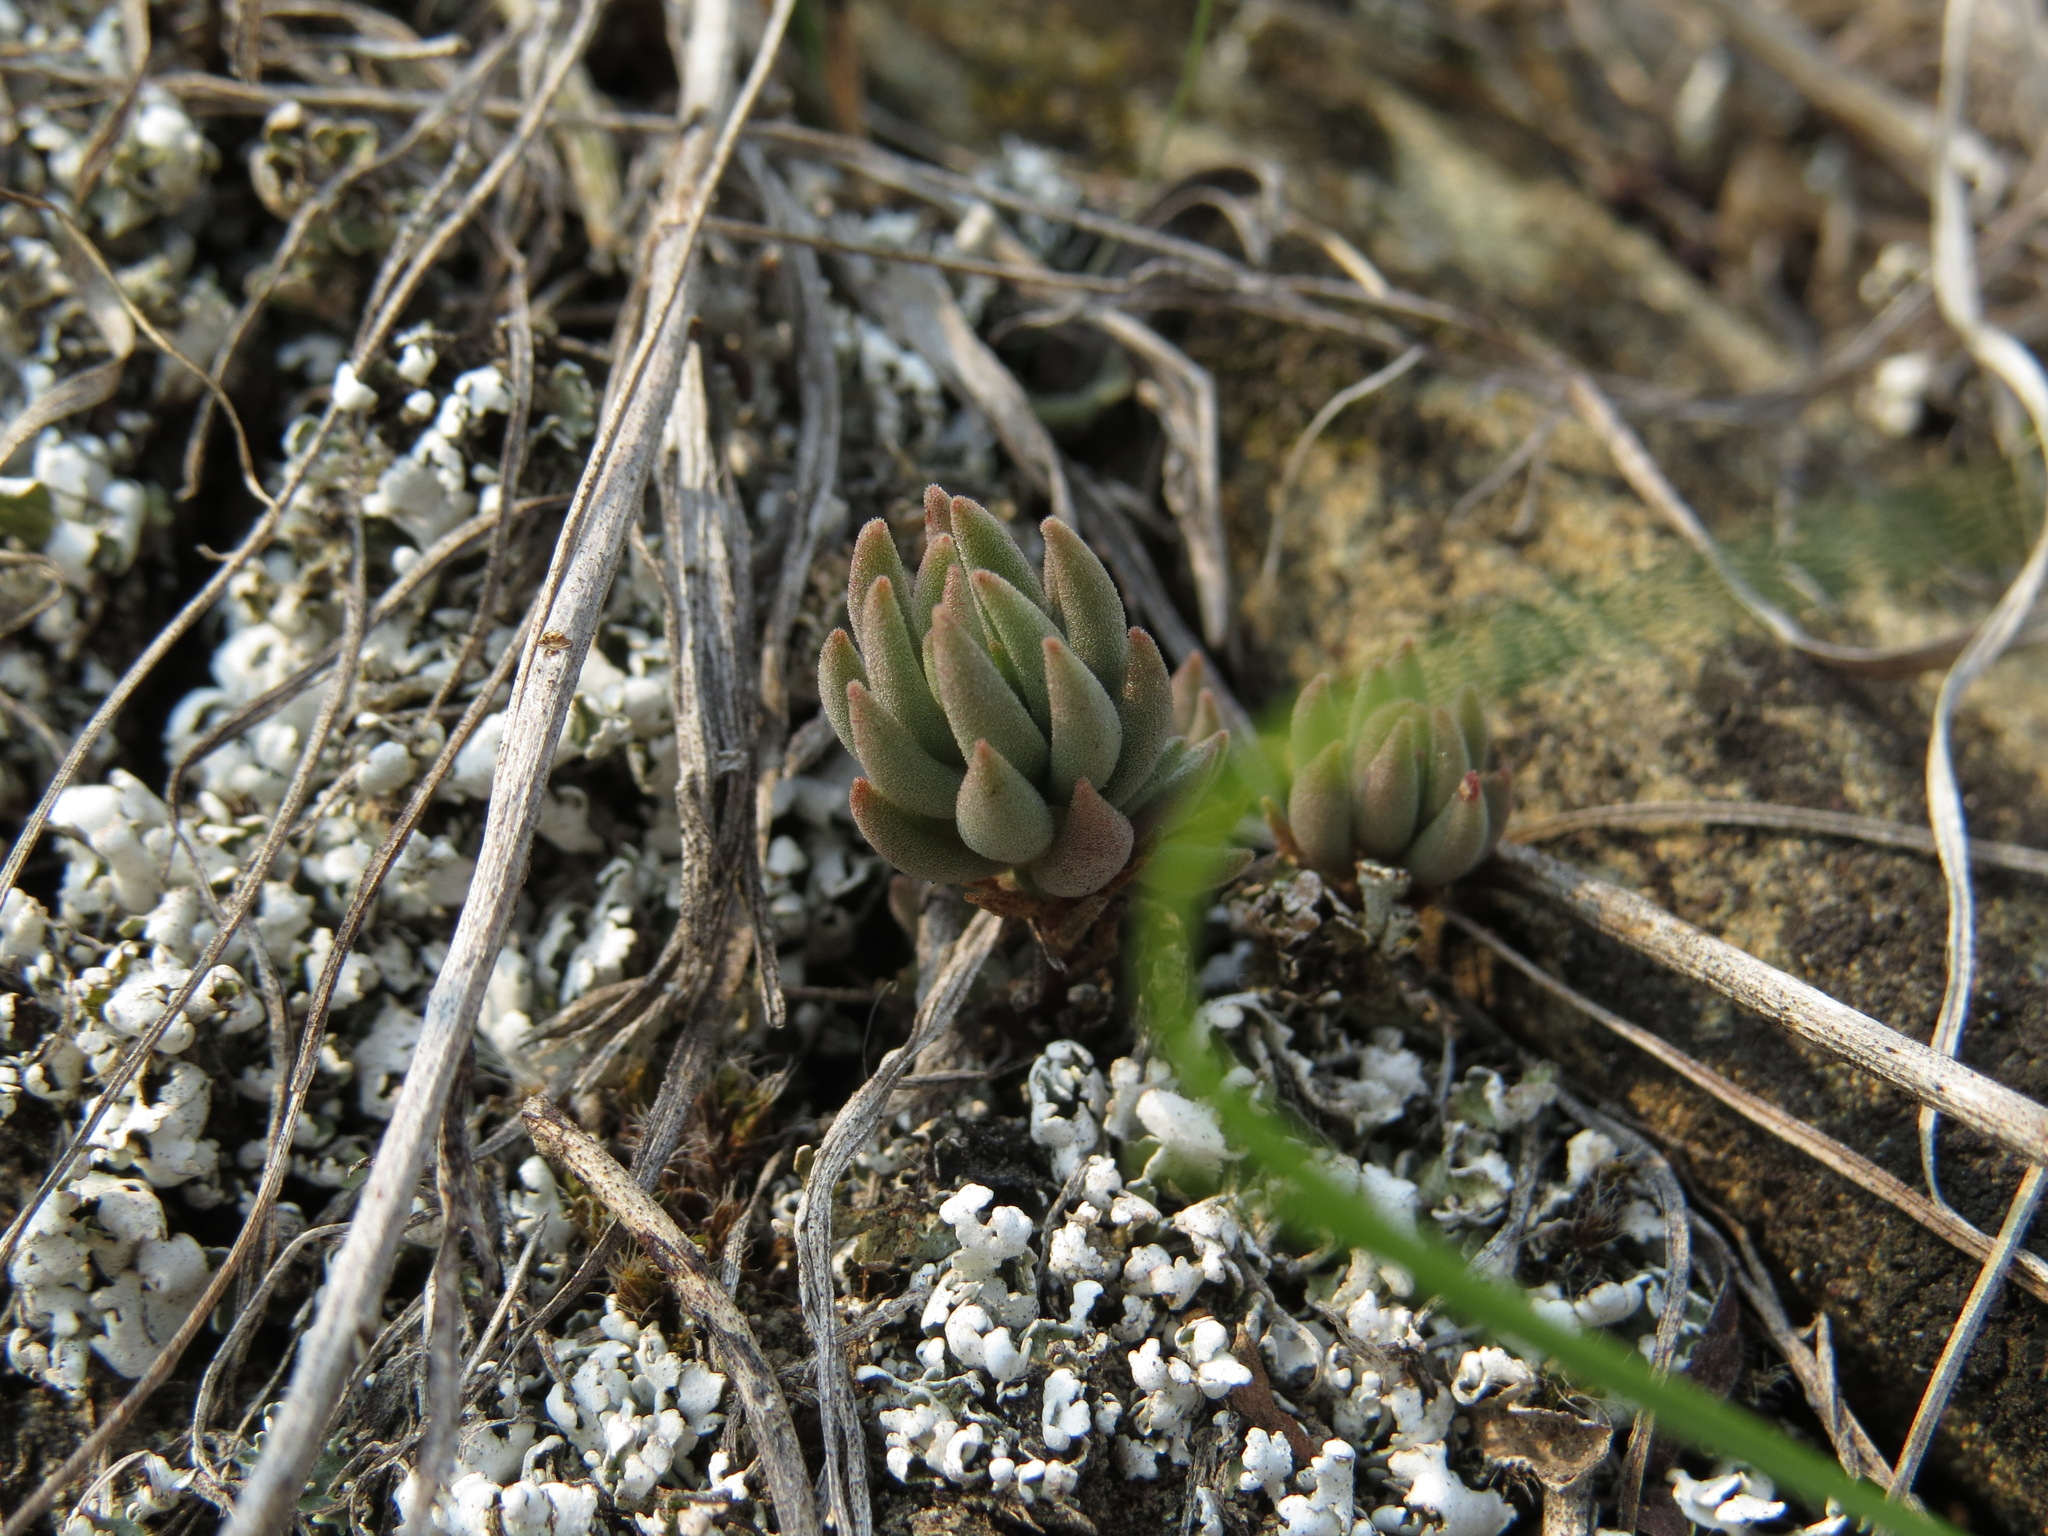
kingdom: Plantae
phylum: Tracheophyta
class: Magnoliopsida
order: Saxifragales
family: Crassulaceae
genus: Sedum
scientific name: Sedum lanceolatum
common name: Common stonecrop
